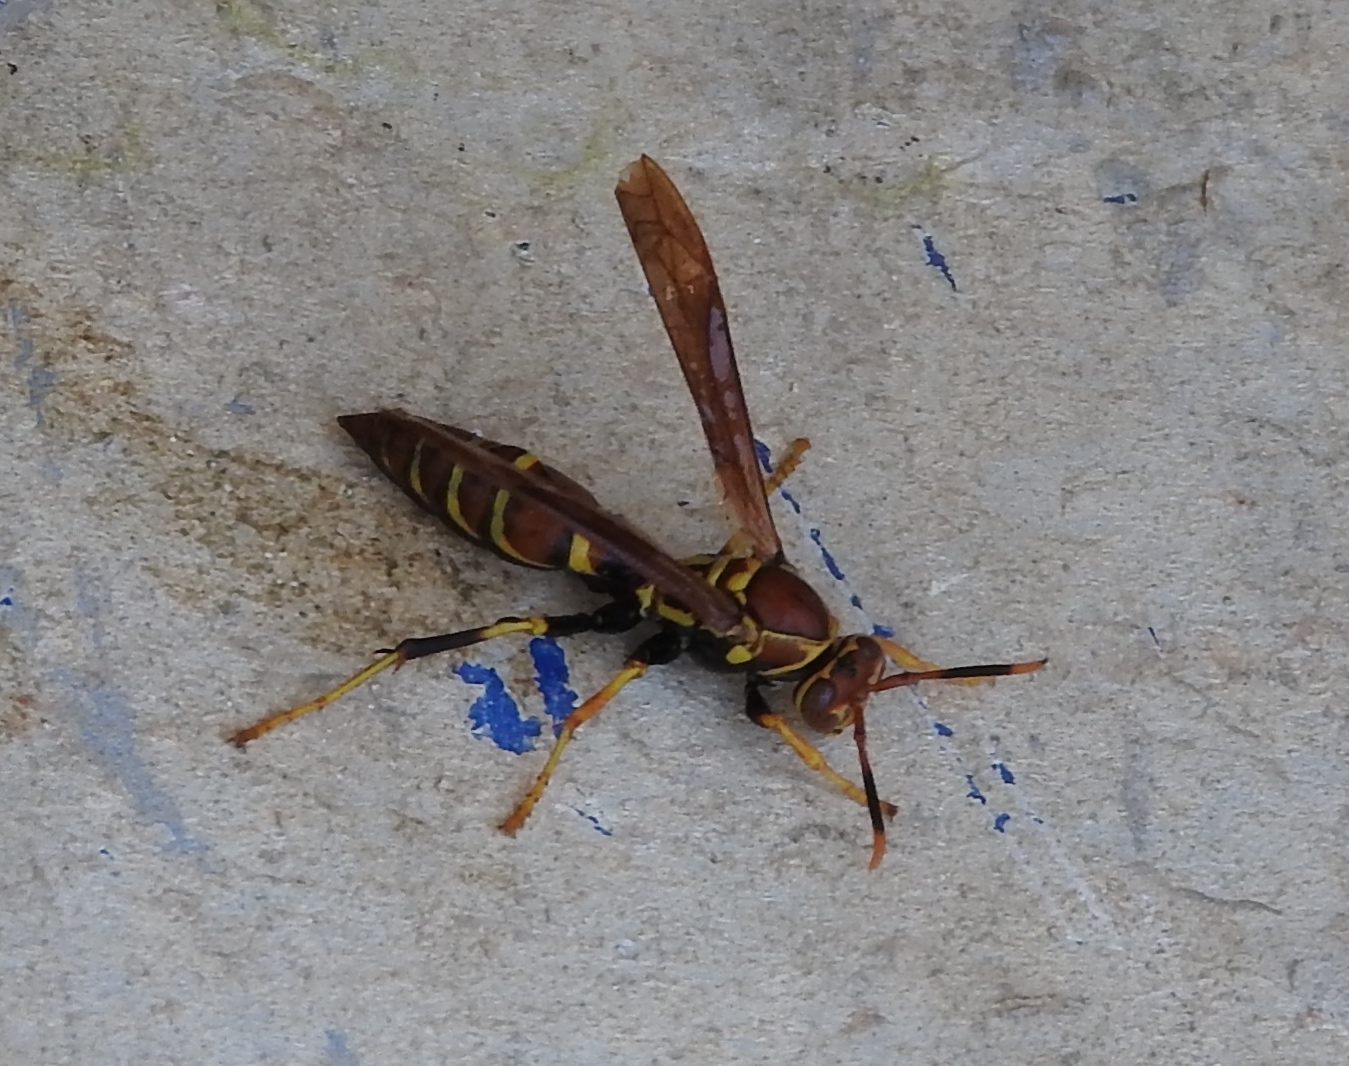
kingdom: Animalia
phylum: Arthropoda
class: Insecta
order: Hymenoptera
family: Eumenidae
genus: Polistes
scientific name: Polistes instabilis
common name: Unstable paper wasp
